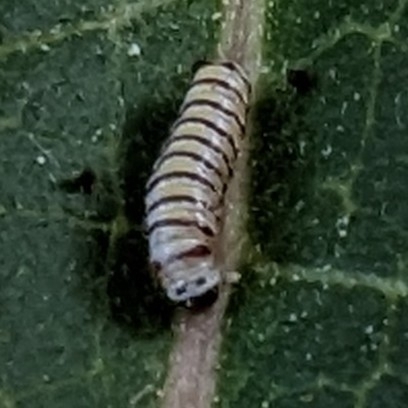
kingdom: Animalia
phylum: Arthropoda
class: Insecta
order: Lepidoptera
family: Nymphalidae
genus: Danaus
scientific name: Danaus plexippus
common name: Monarch
